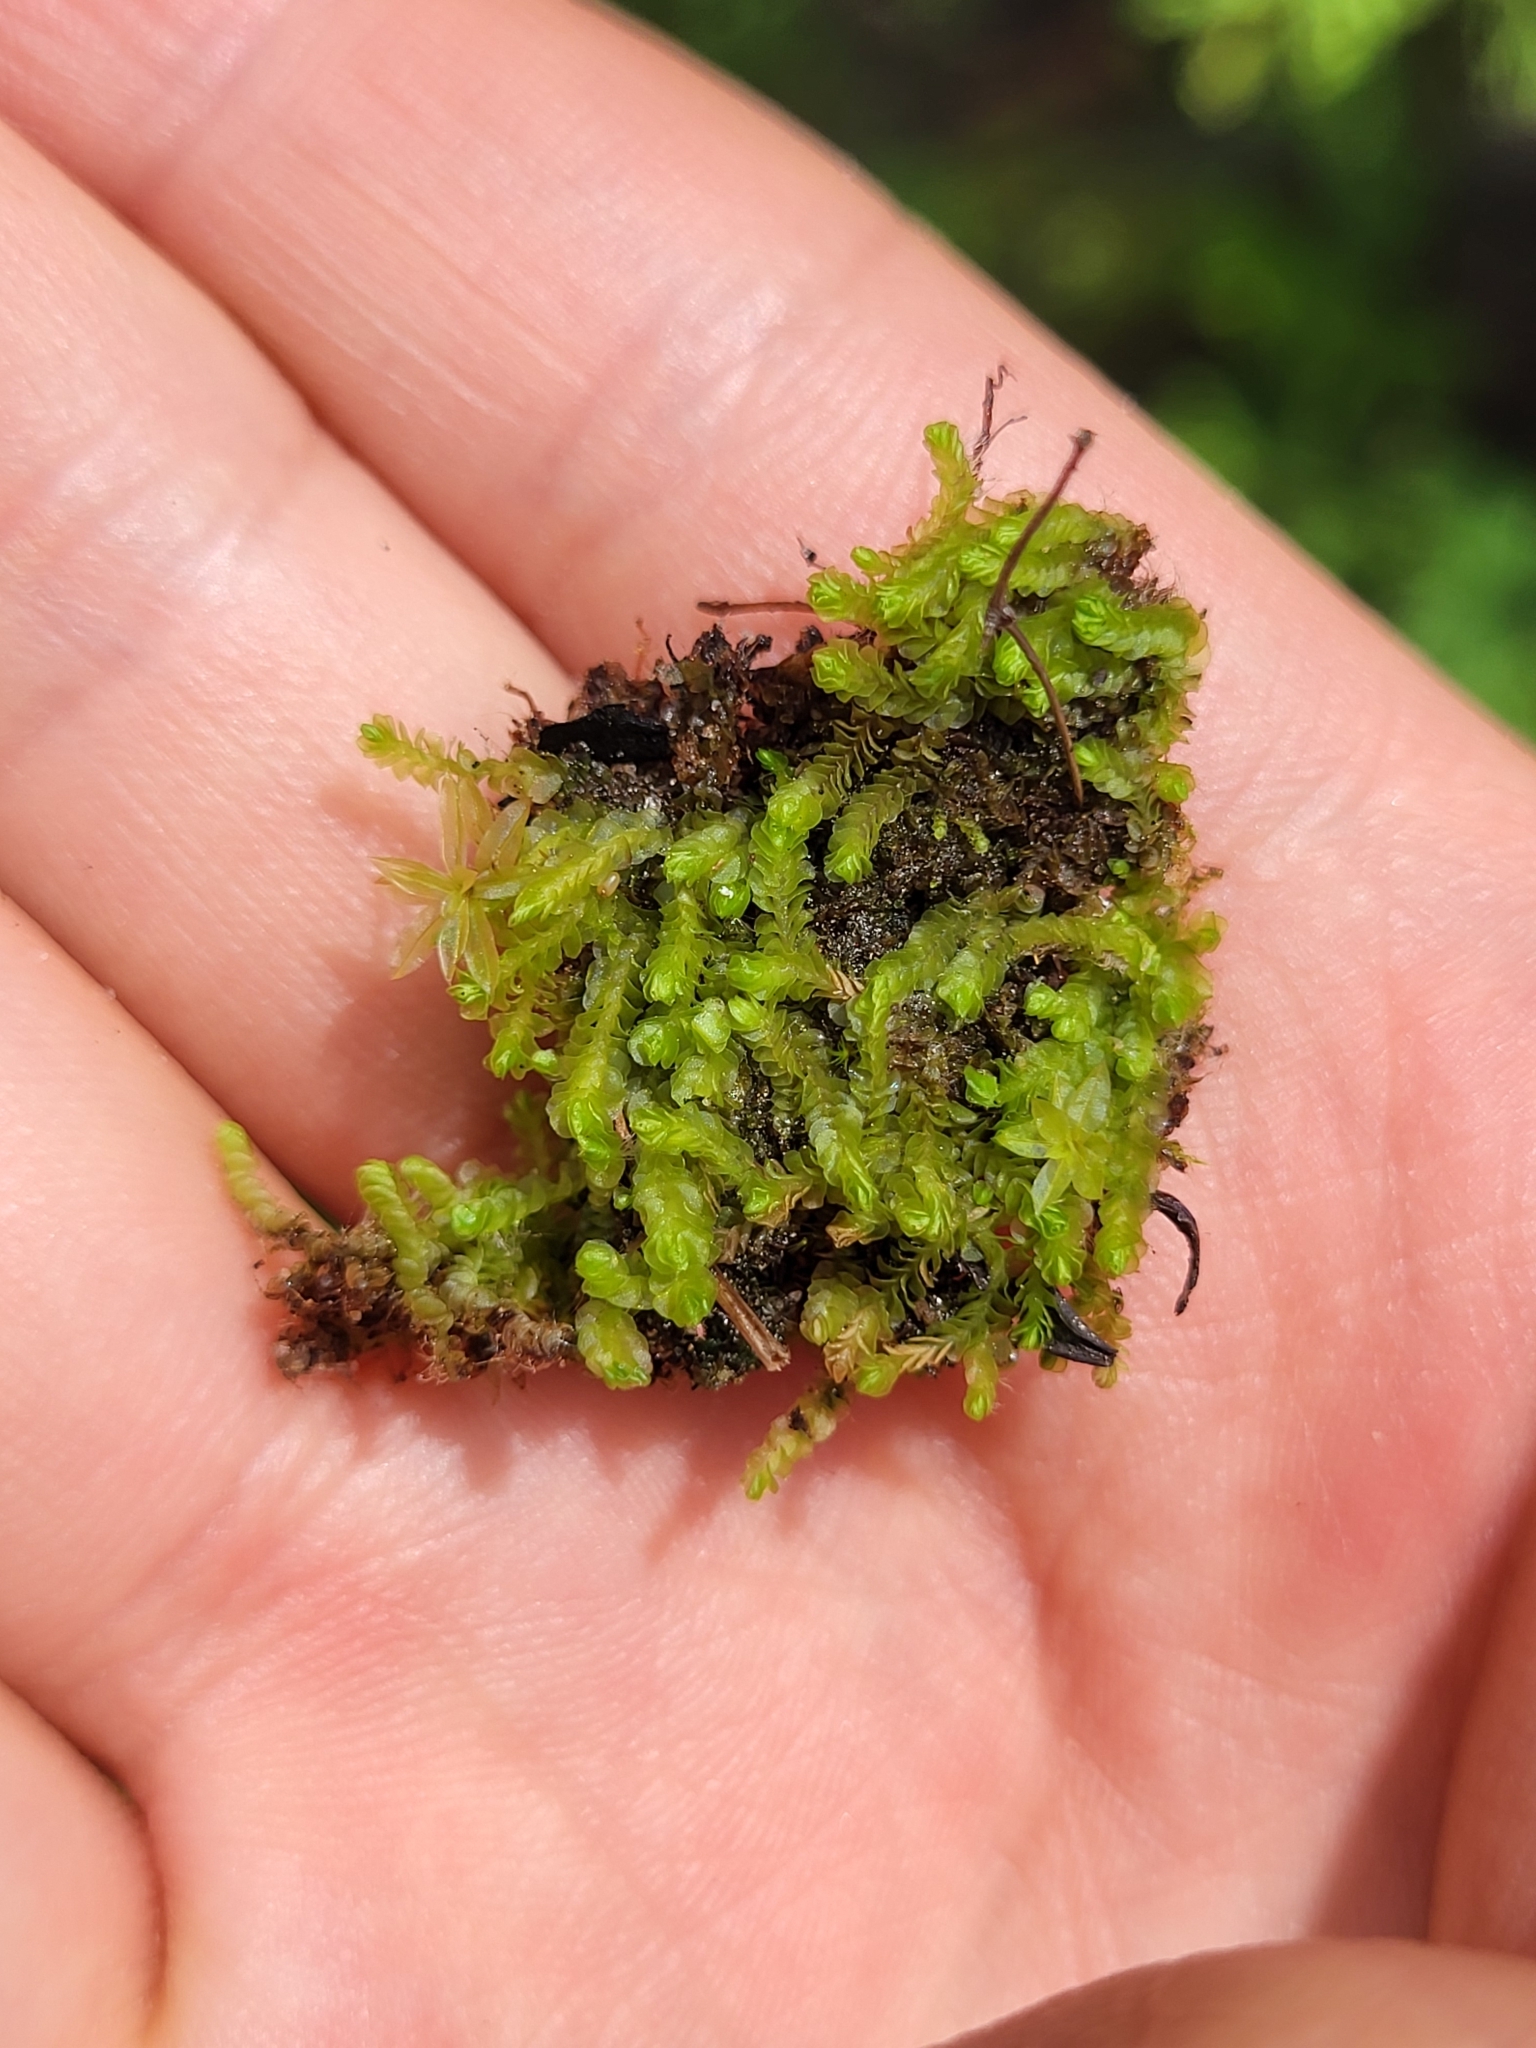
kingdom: Plantae
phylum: Marchantiophyta
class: Jungermanniopsida
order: Jungermanniales
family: Adelanthaceae
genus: Syzygiella
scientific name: Syzygiella autumnalis
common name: Jameson's liverwort
